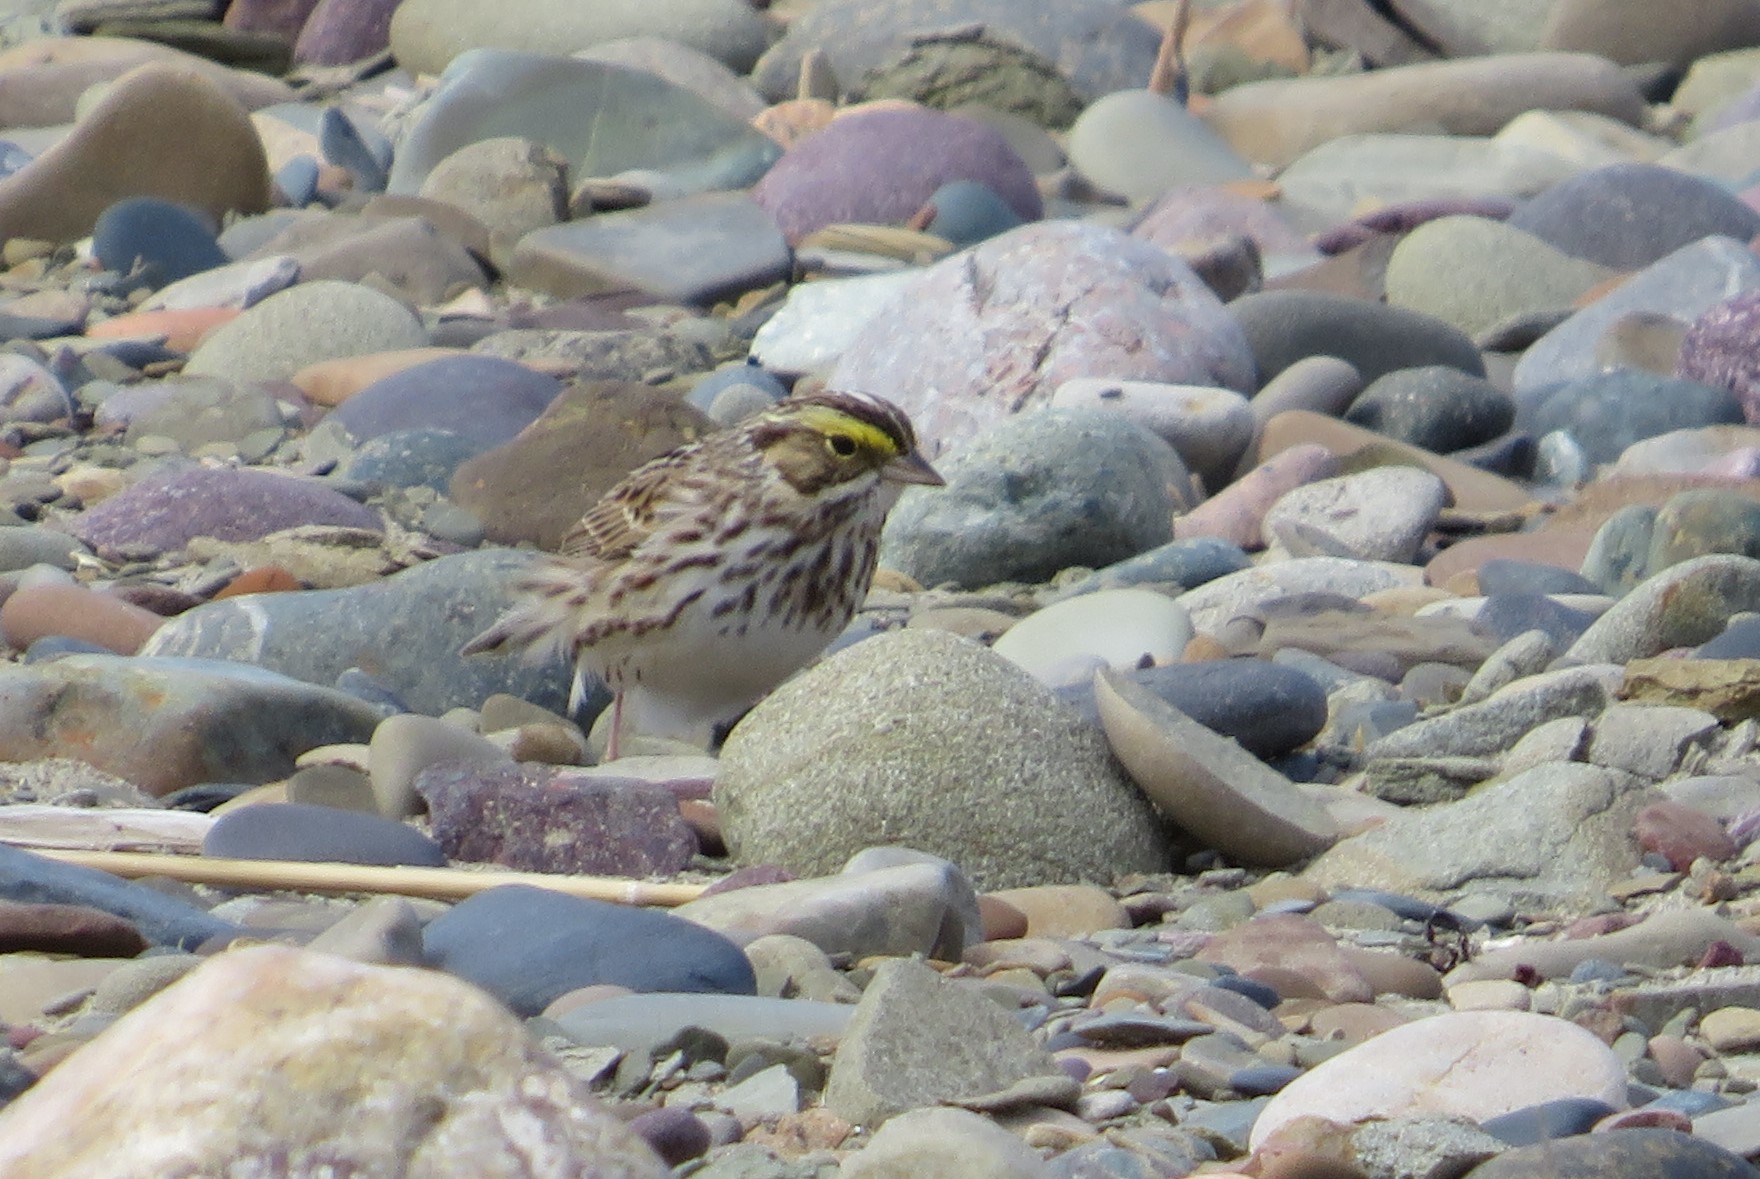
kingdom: Animalia
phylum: Chordata
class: Aves
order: Passeriformes
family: Passerellidae
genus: Passerculus
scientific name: Passerculus sandwichensis
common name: Savannah sparrow
